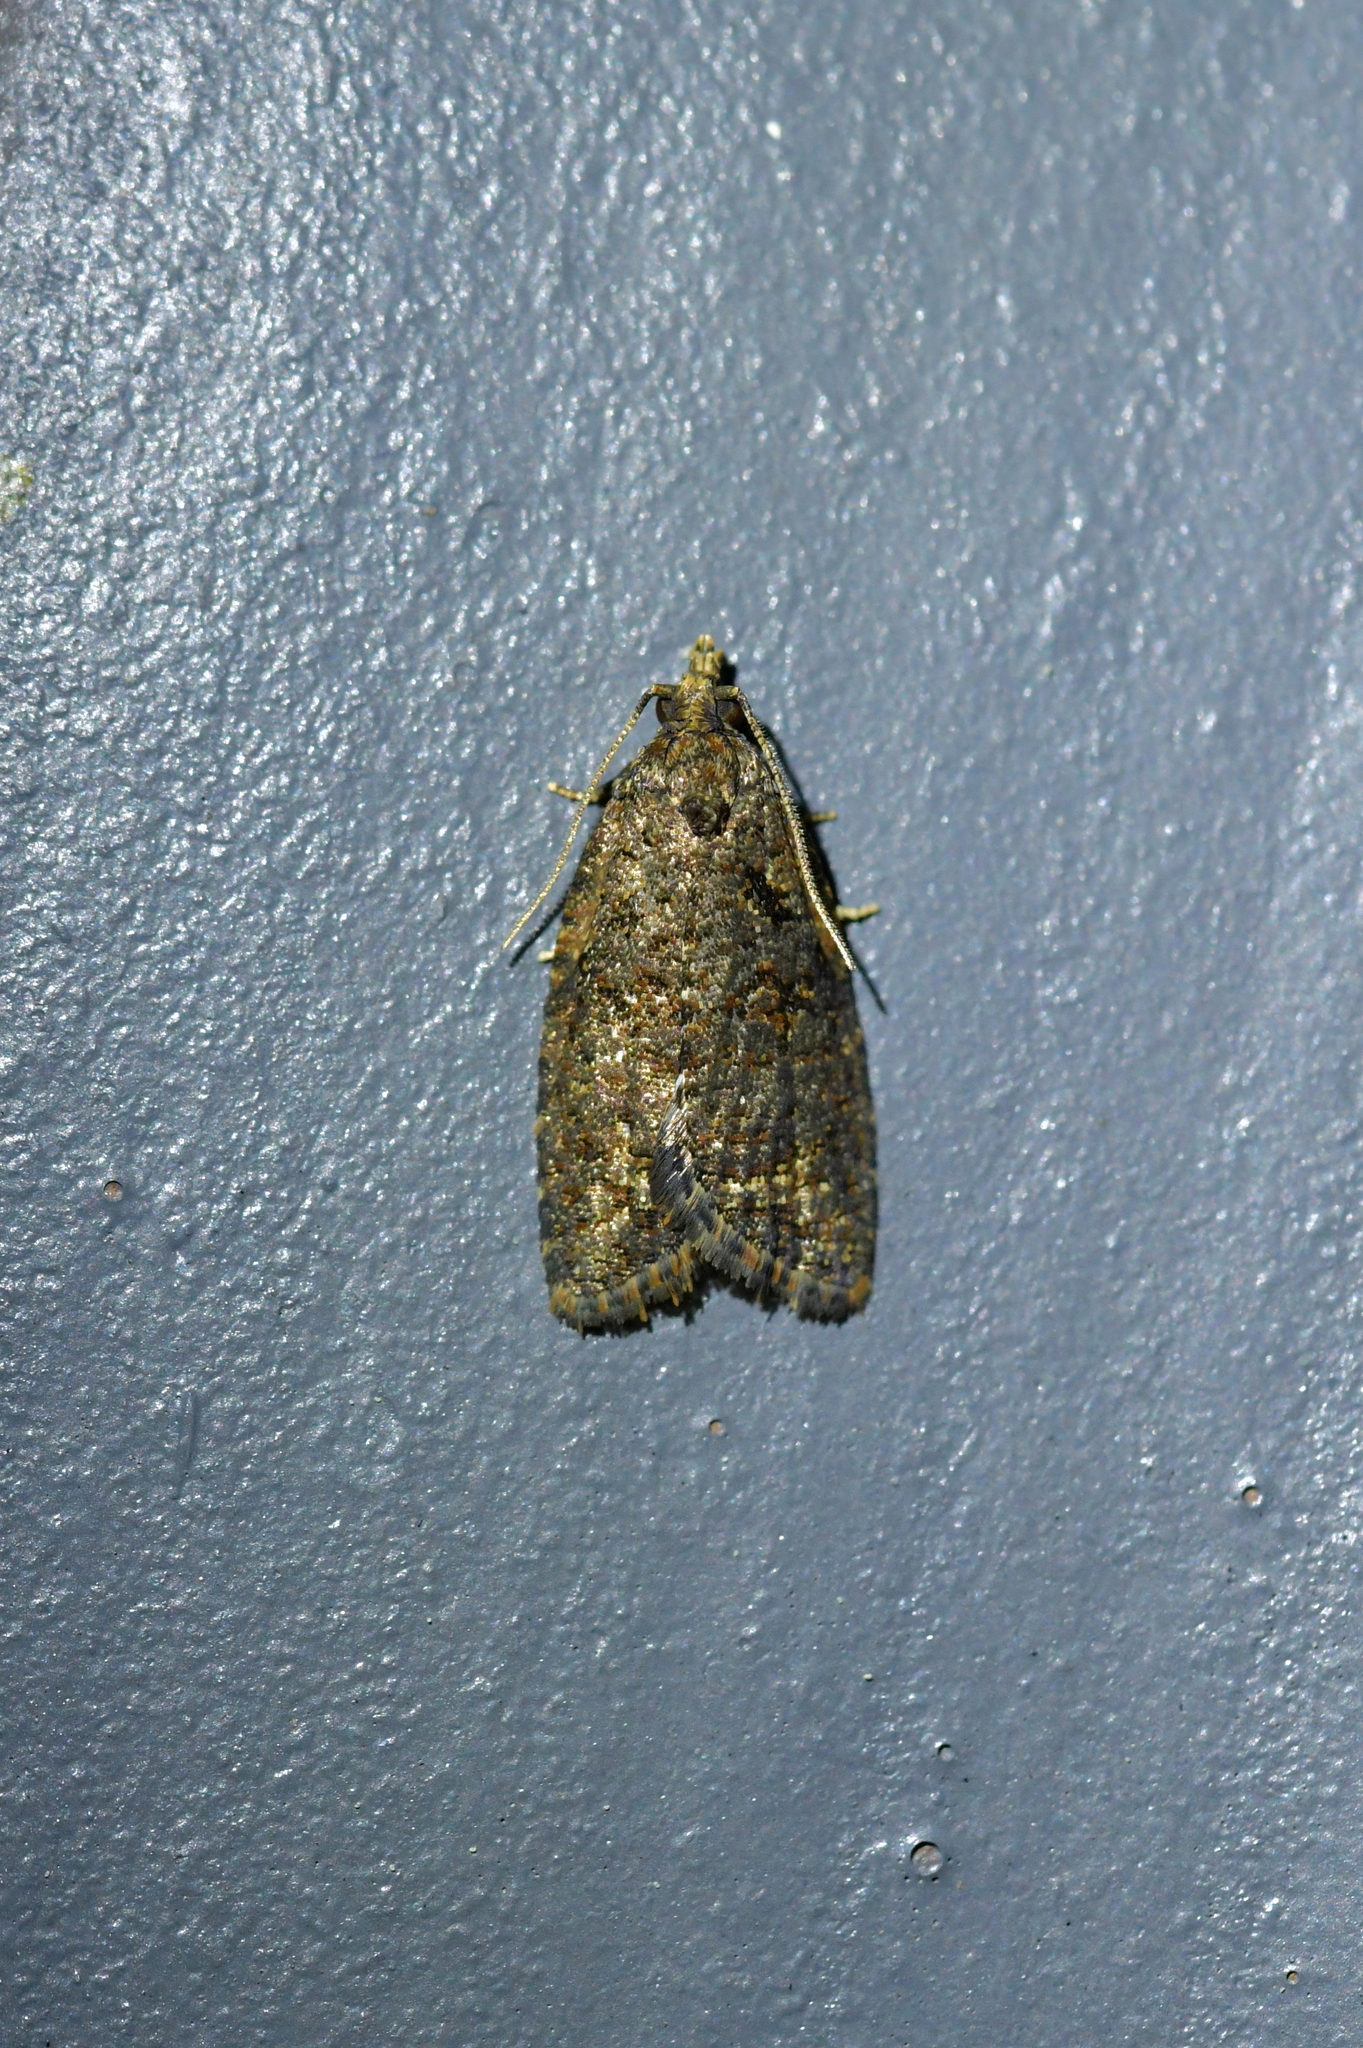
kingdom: Animalia
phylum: Arthropoda
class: Insecta
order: Lepidoptera
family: Tortricidae
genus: Capua
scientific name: Capua intractana
